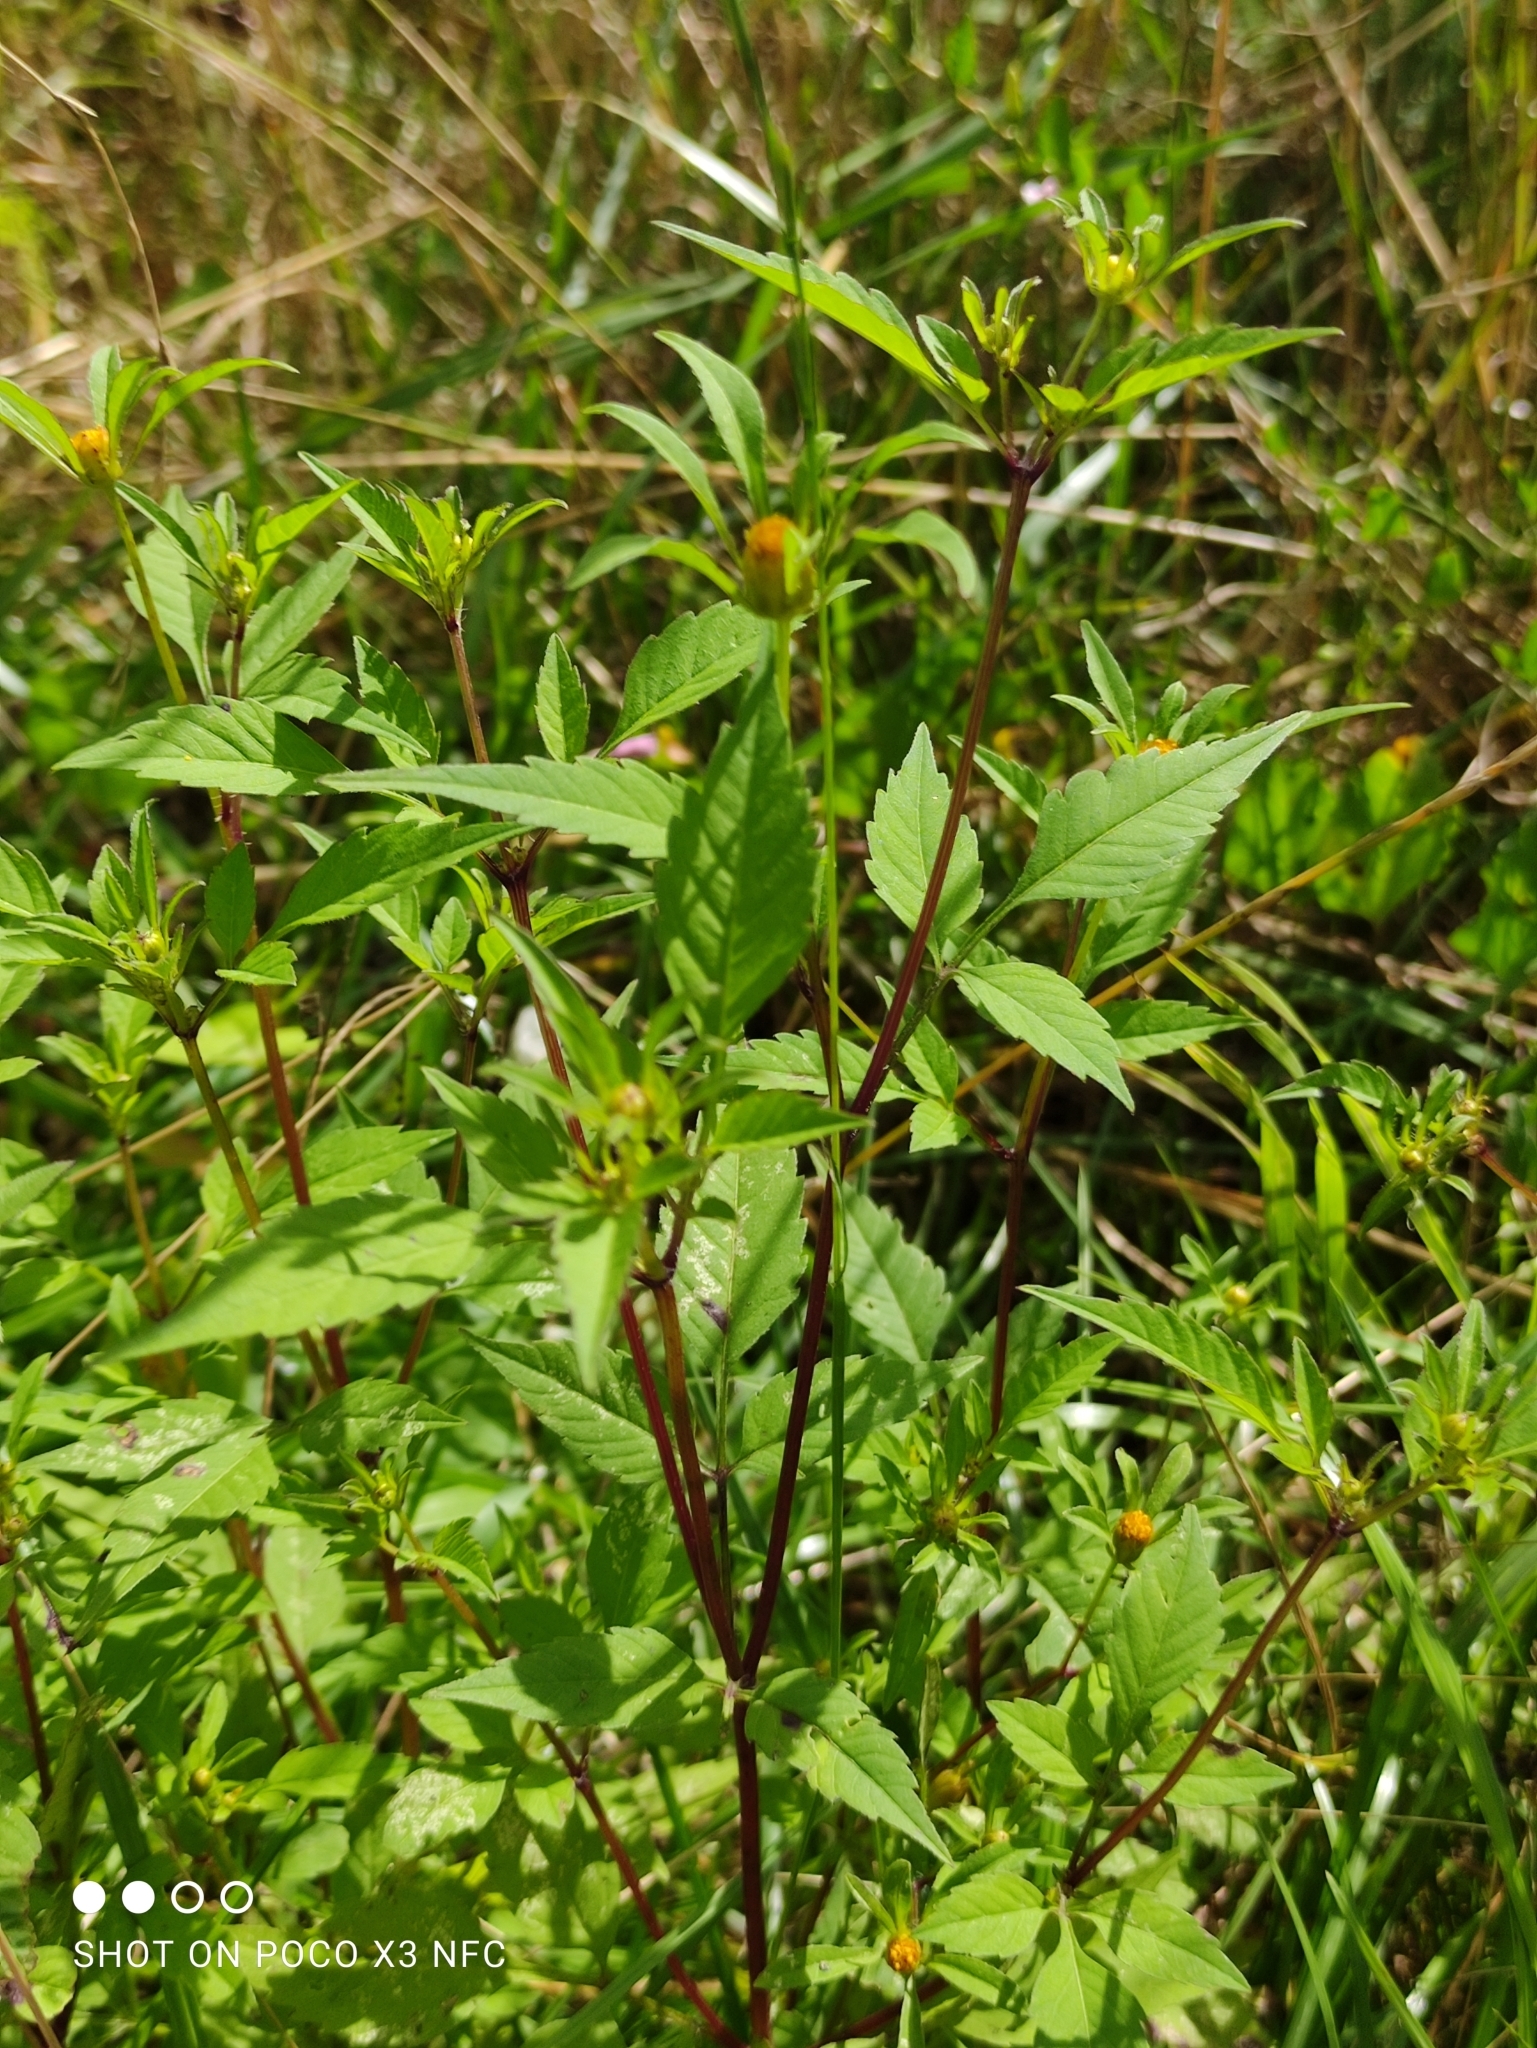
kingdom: Plantae
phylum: Tracheophyta
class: Magnoliopsida
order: Asterales
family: Asteraceae
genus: Bidens
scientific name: Bidens frondosa
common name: Beggarticks
